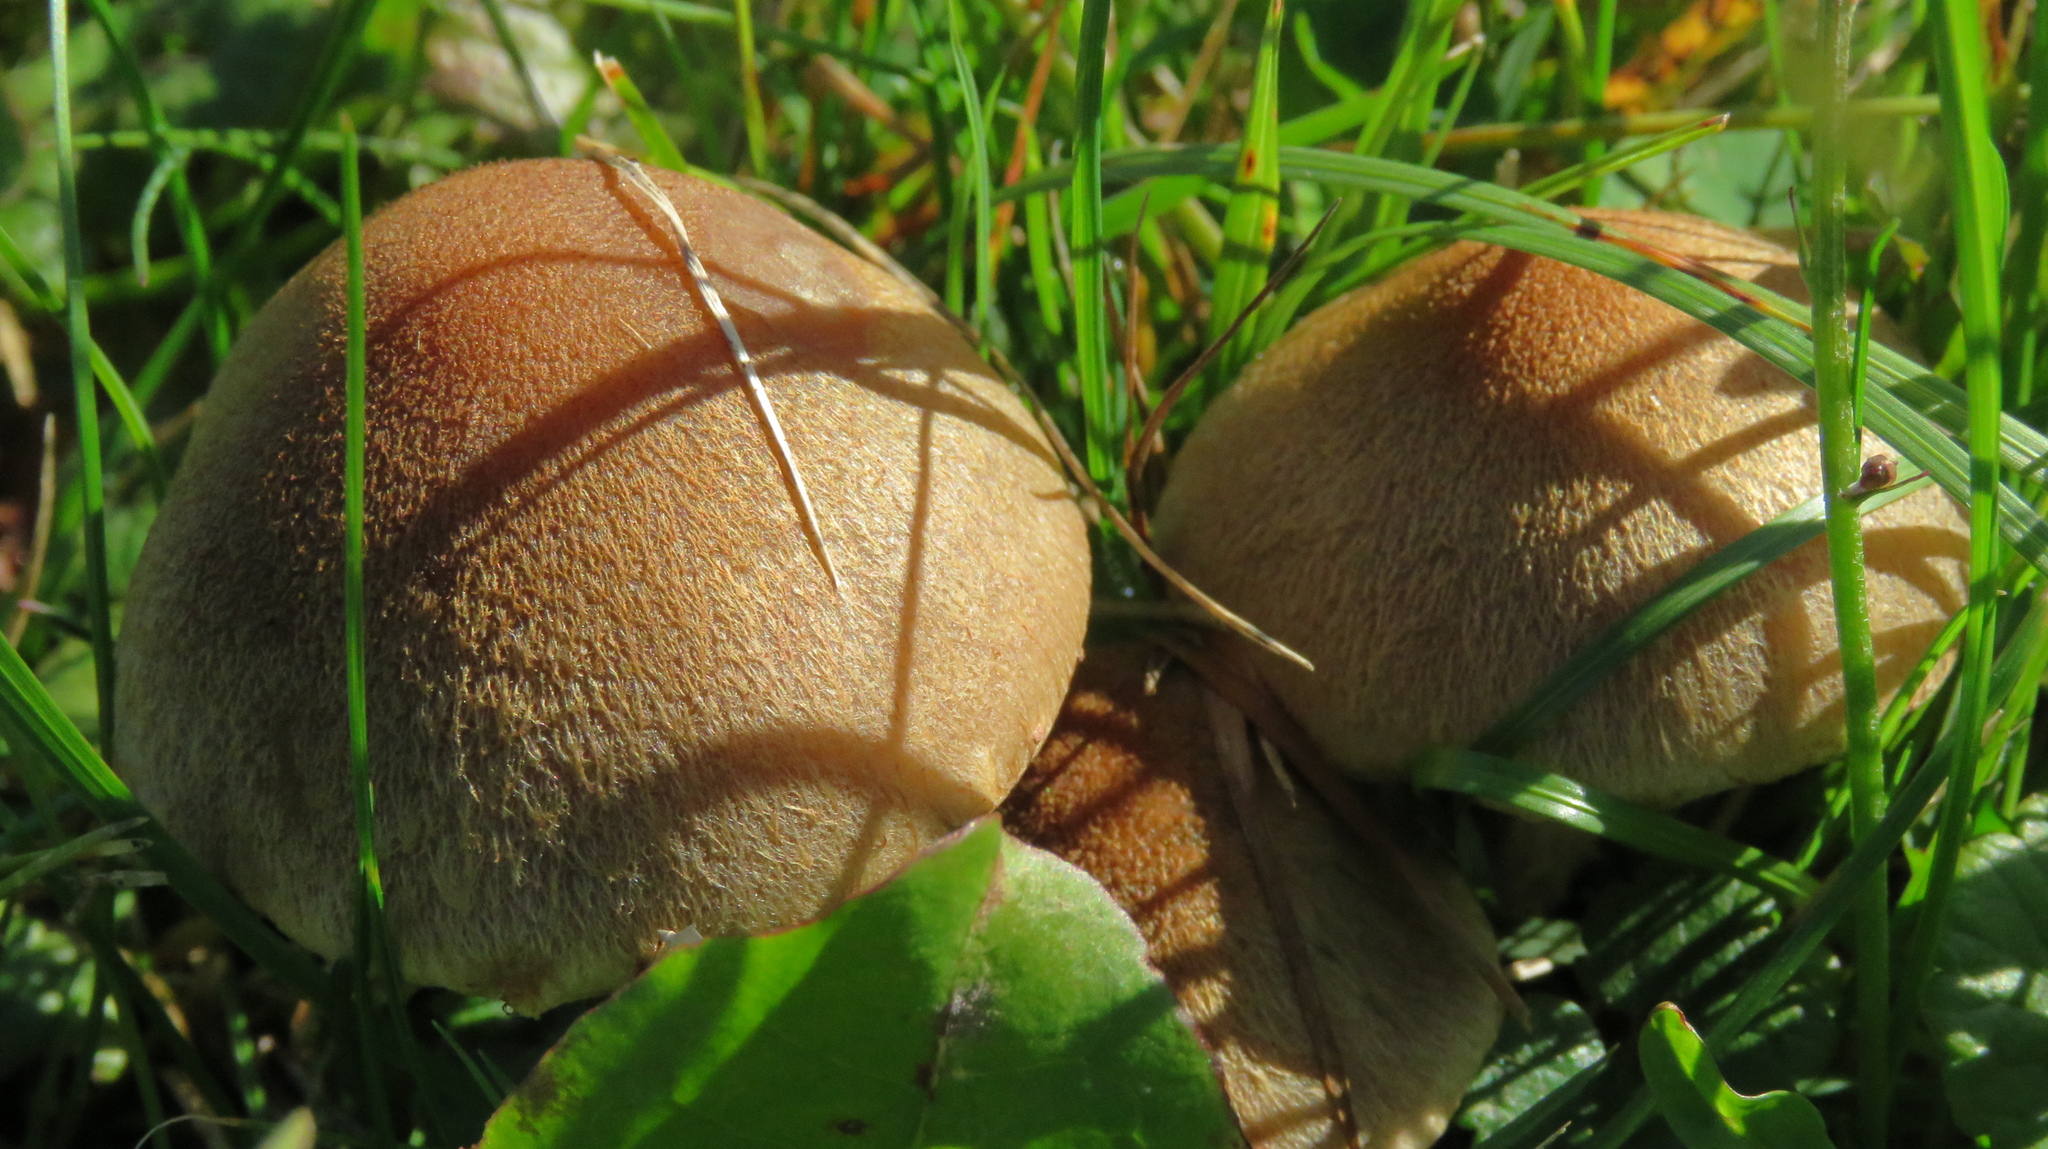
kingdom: Fungi
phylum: Basidiomycota
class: Agaricomycetes
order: Agaricales
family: Psathyrellaceae
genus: Lacrymaria
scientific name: Lacrymaria lacrymabunda
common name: Weeping widow
